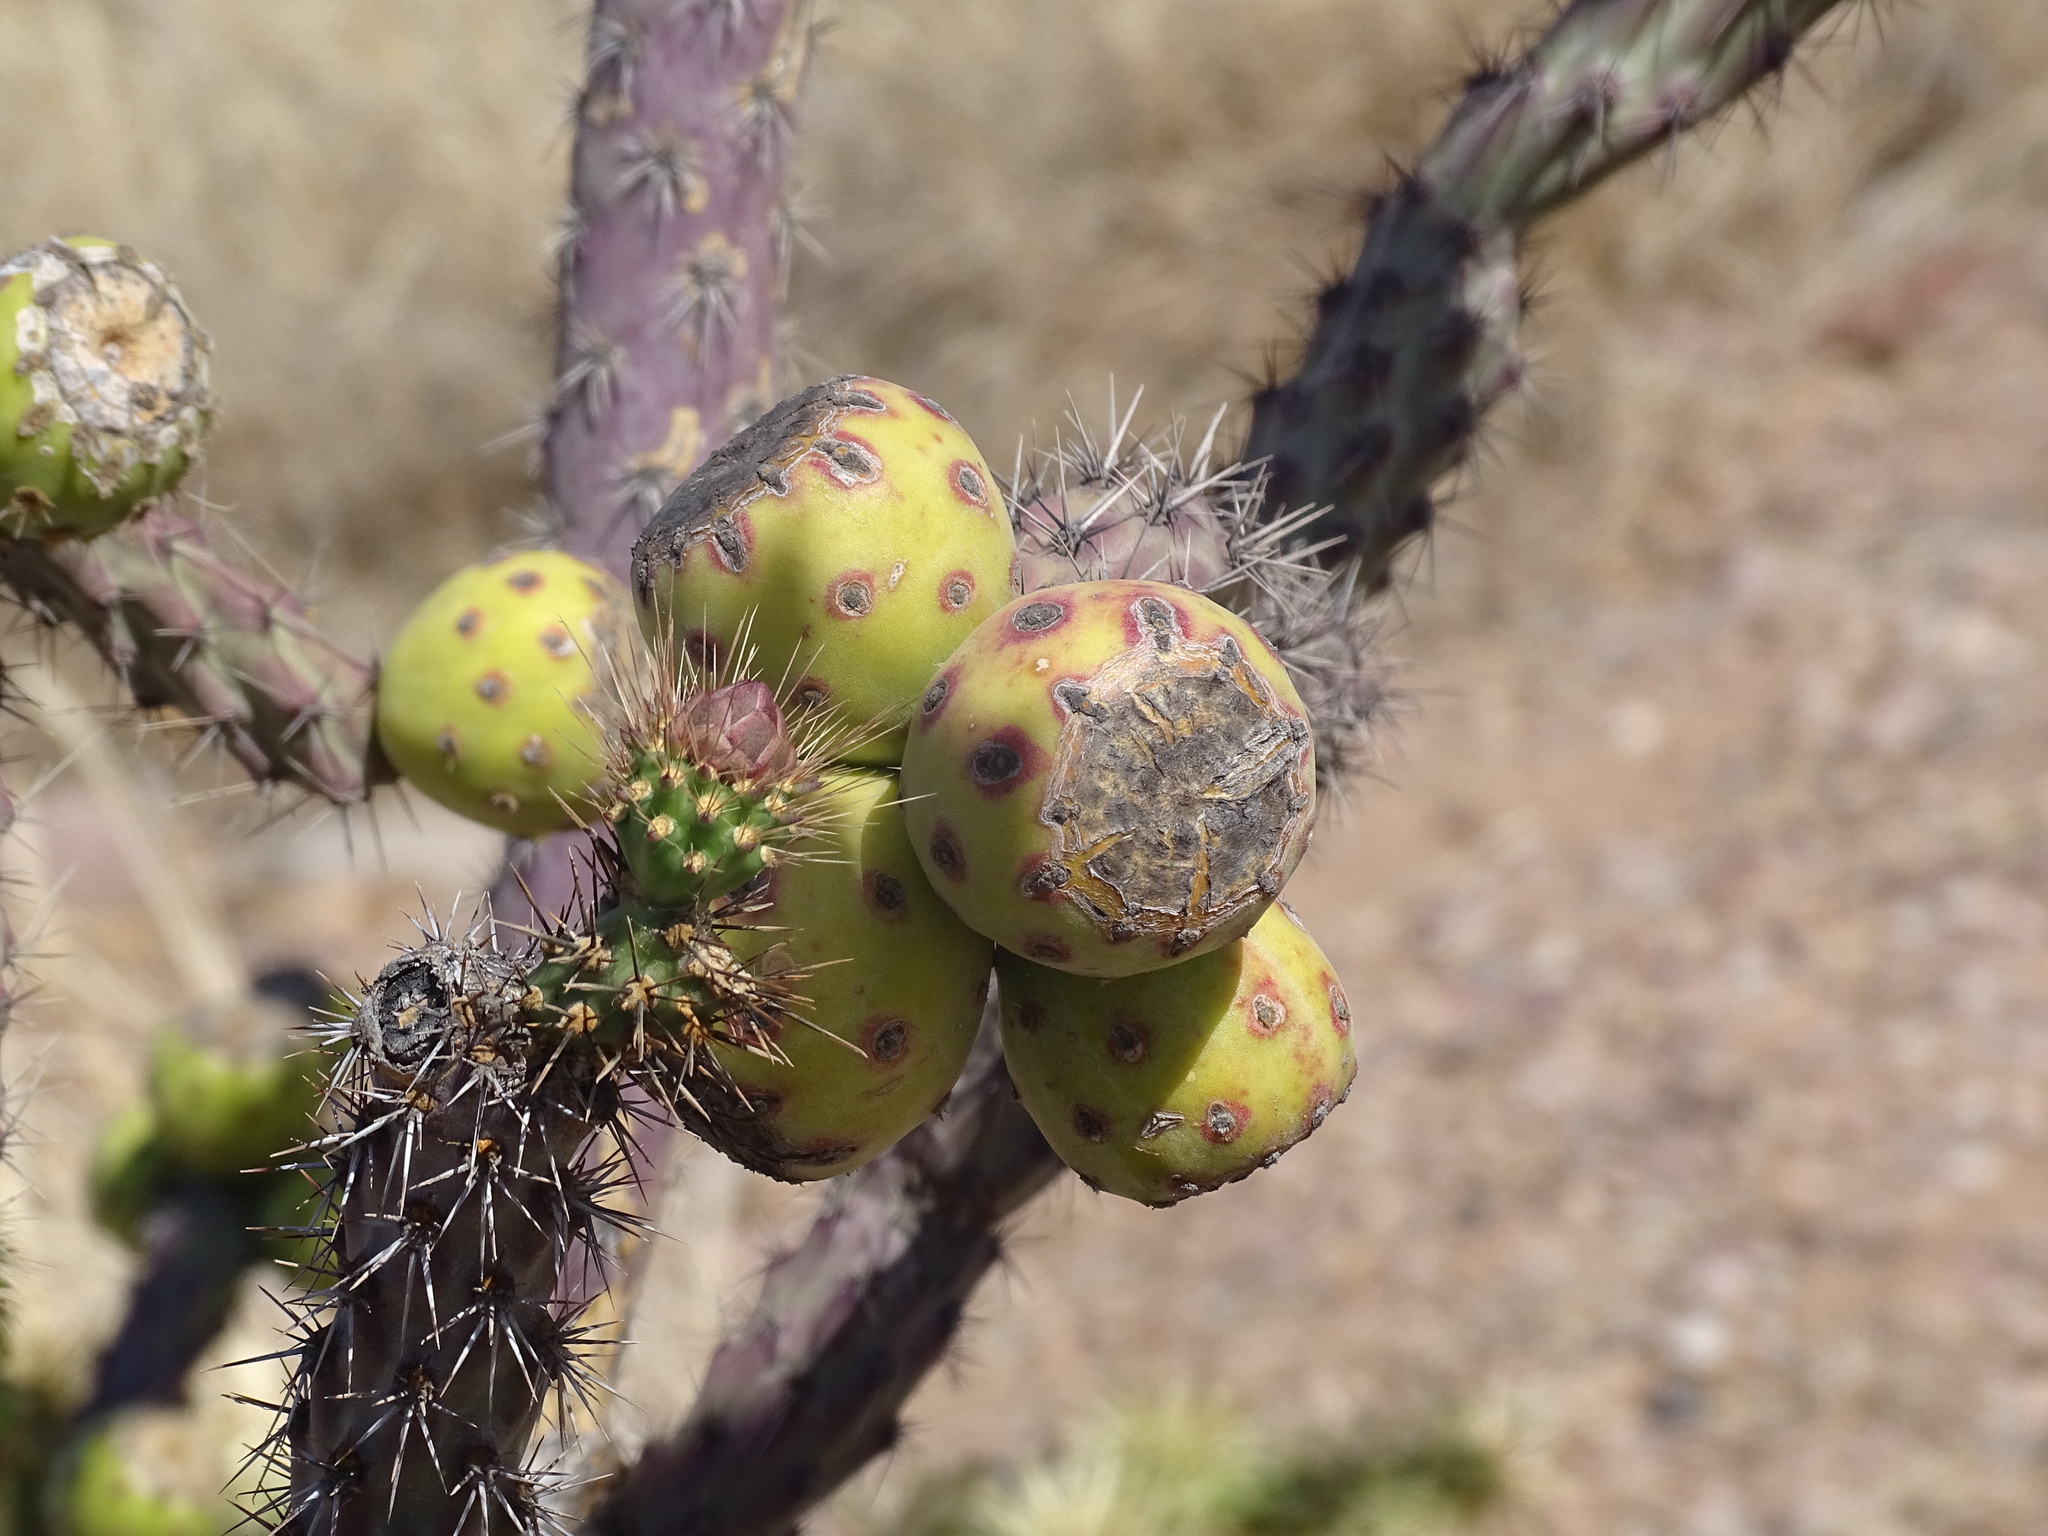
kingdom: Plantae
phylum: Tracheophyta
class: Magnoliopsida
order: Caryophyllales
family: Cactaceae
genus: Cylindropuntia
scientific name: Cylindropuntia thurberi
